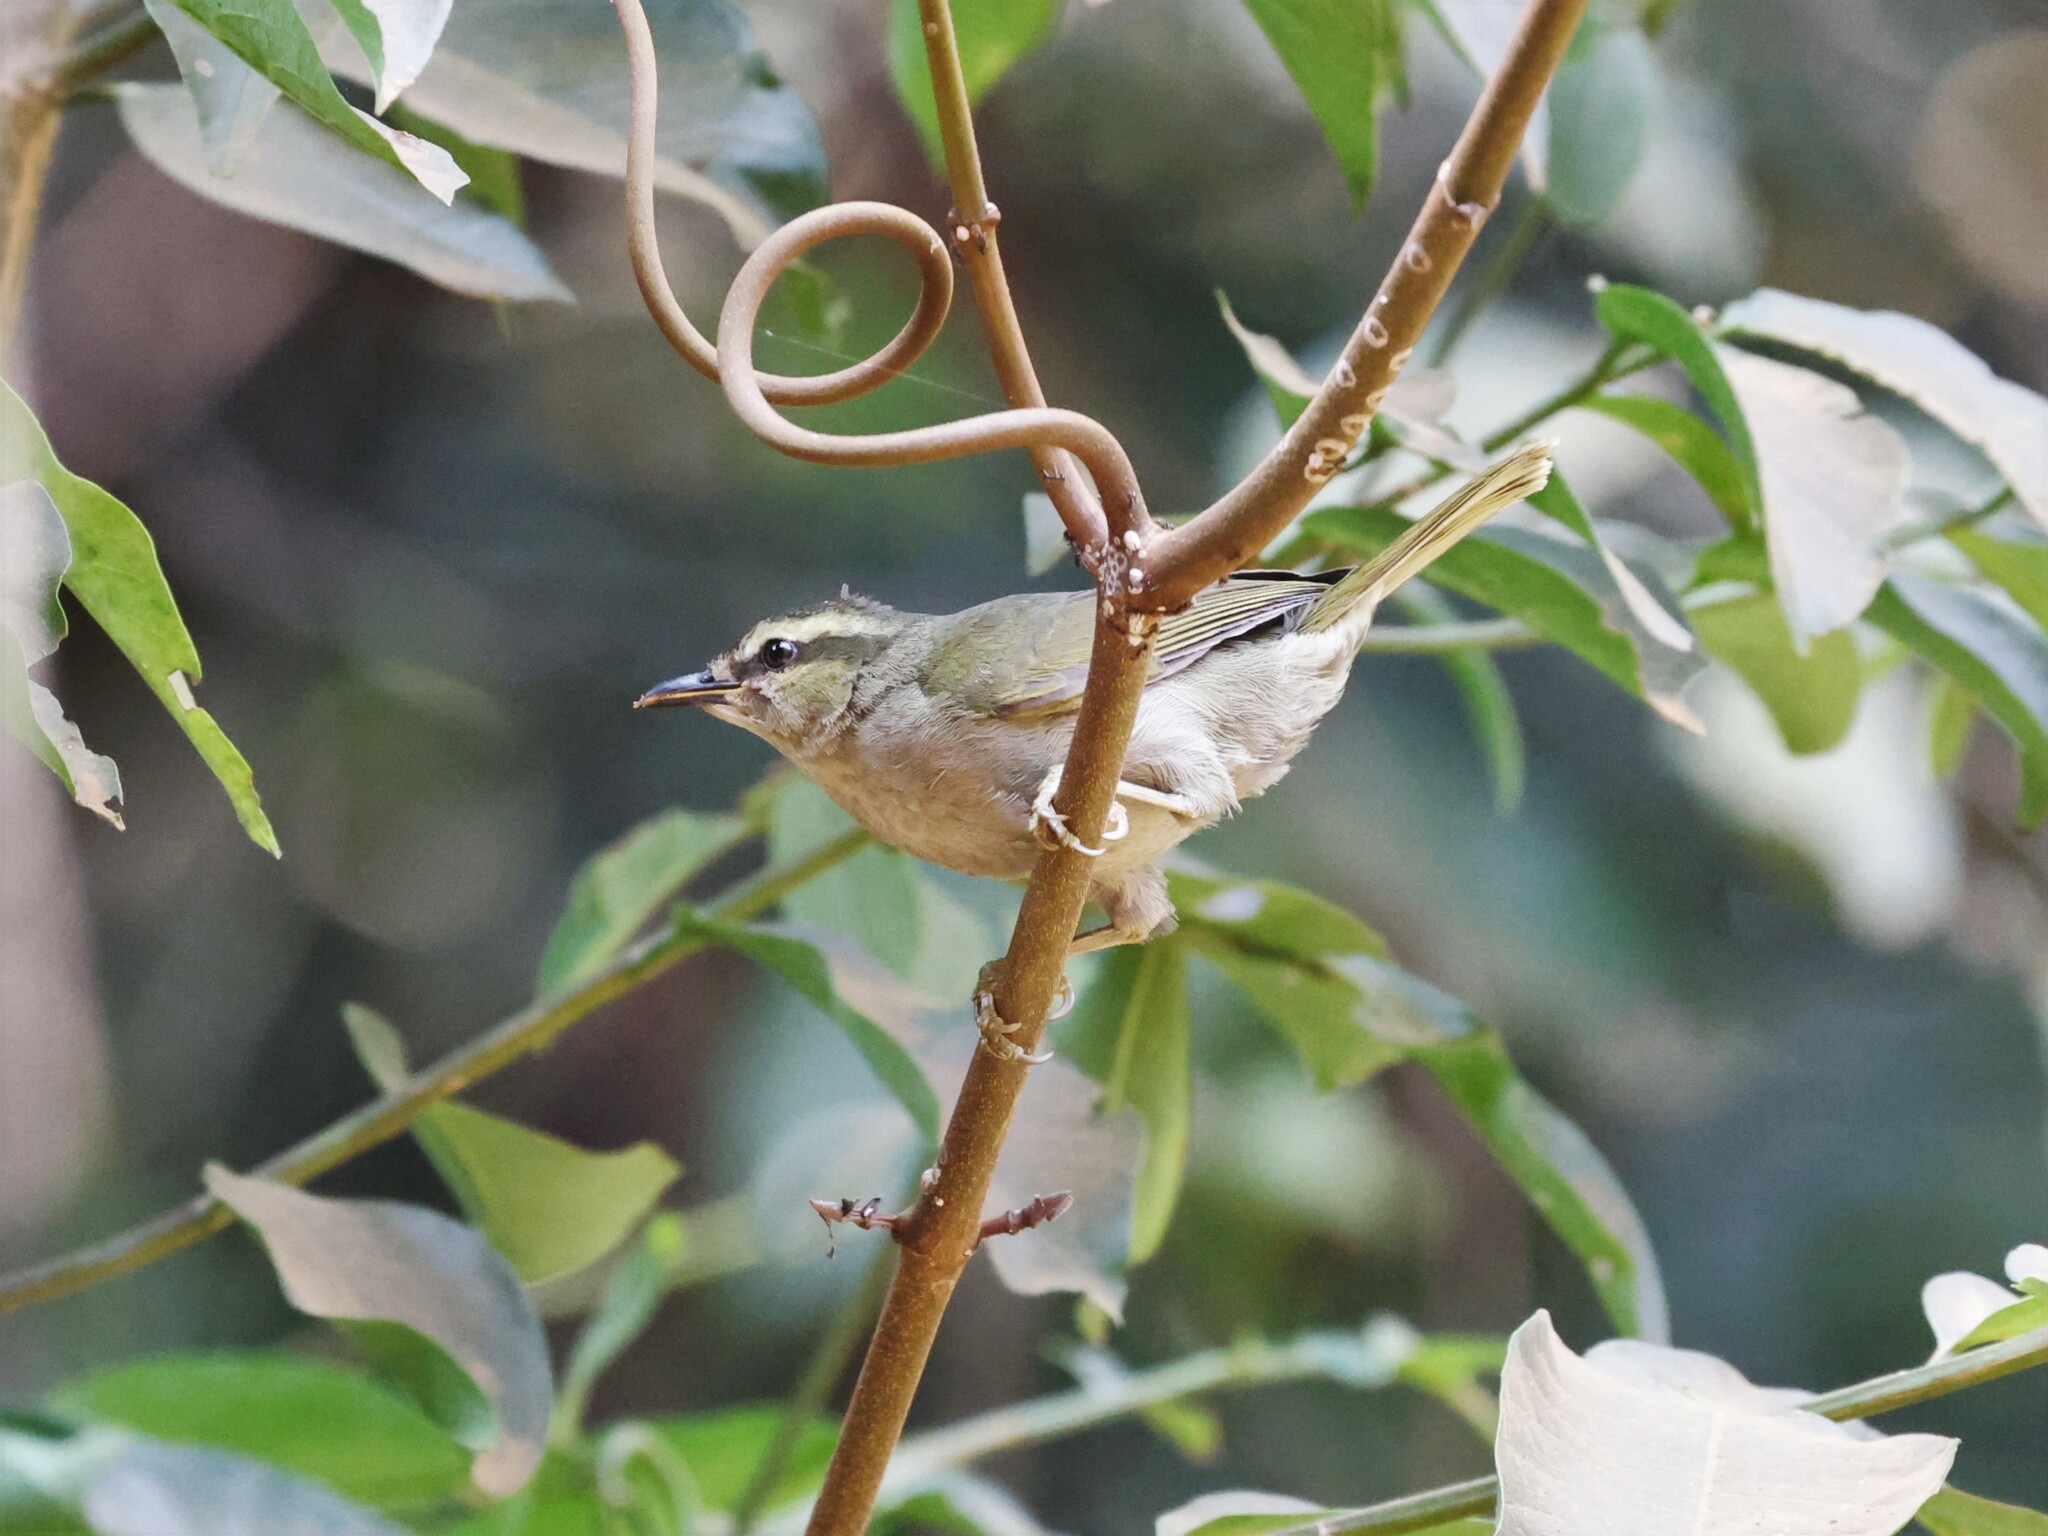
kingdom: Animalia
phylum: Chordata
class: Aves
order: Passeriformes
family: Cettiidae
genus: Hylia
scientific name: Hylia prasina
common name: Green hylia
